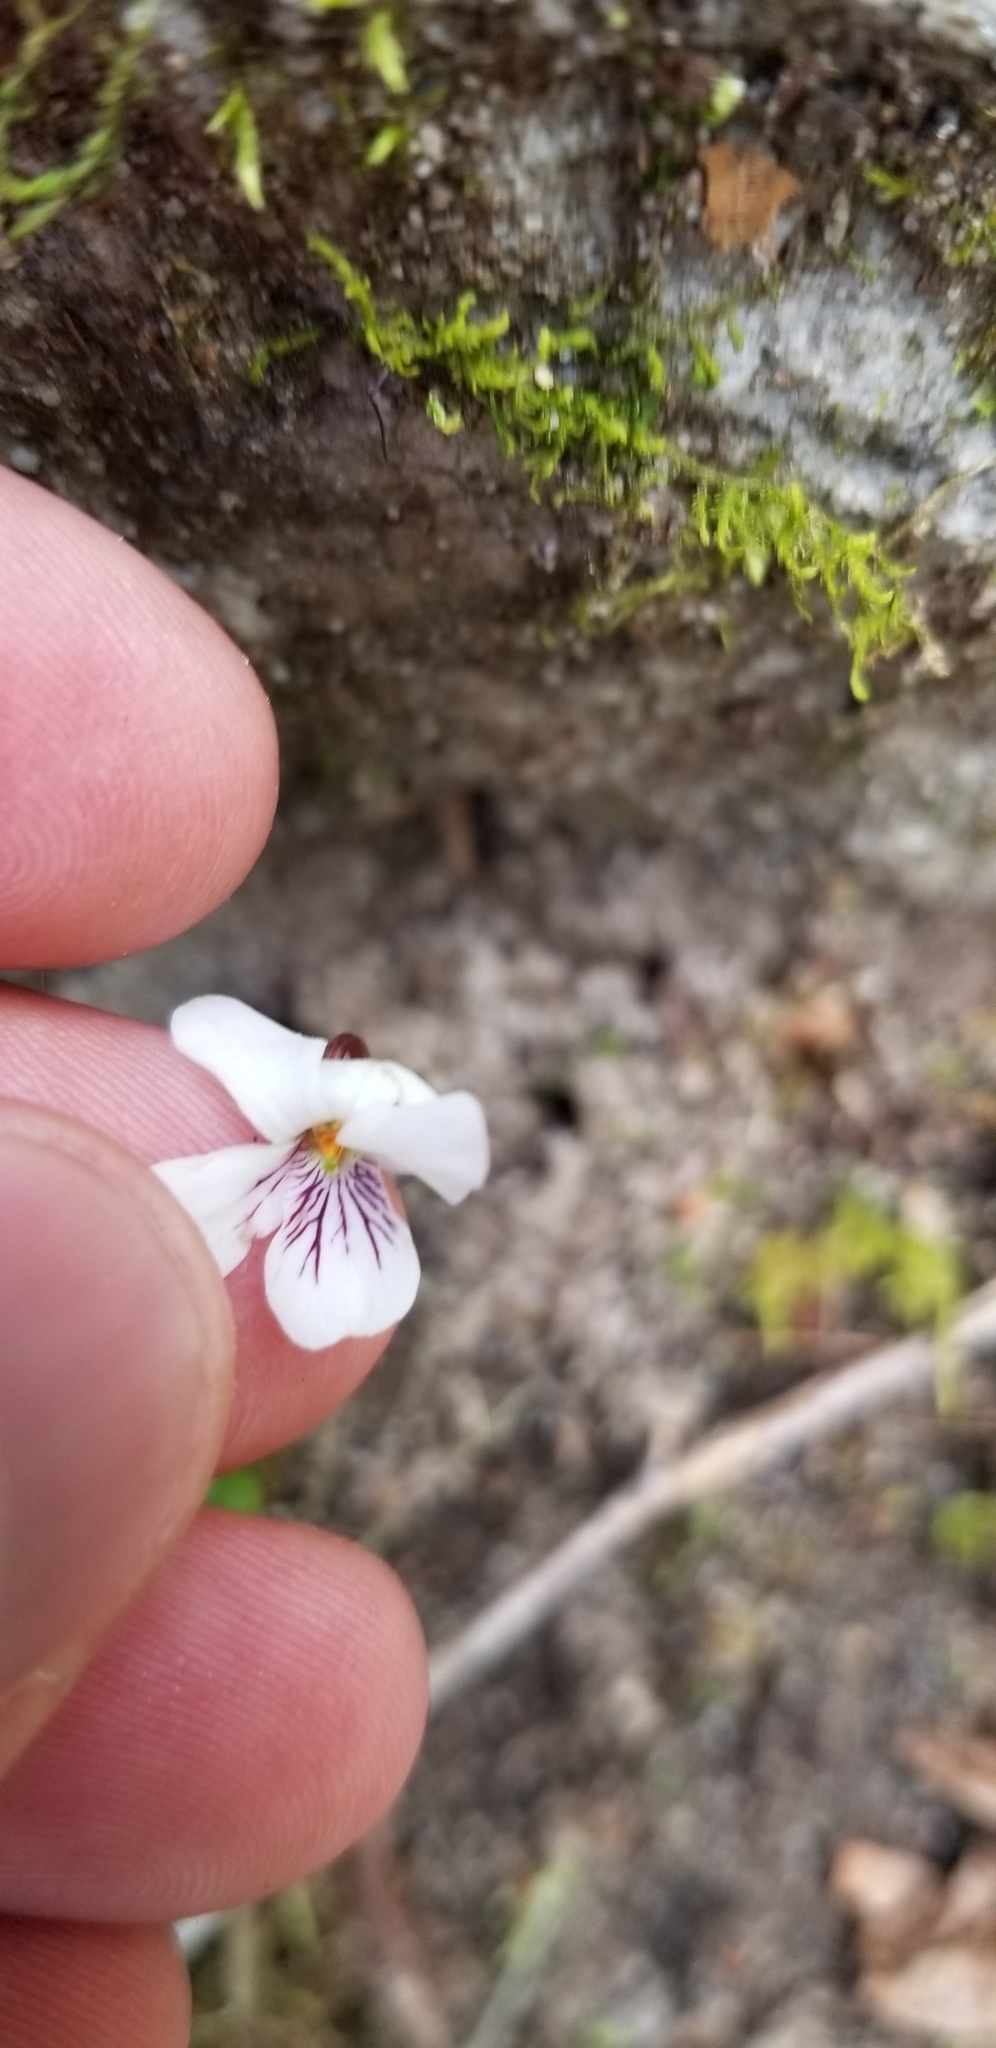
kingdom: Plantae
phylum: Tracheophyta
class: Magnoliopsida
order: Malpighiales
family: Violaceae
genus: Viola
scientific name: Viola blanda
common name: Sweet white violet
